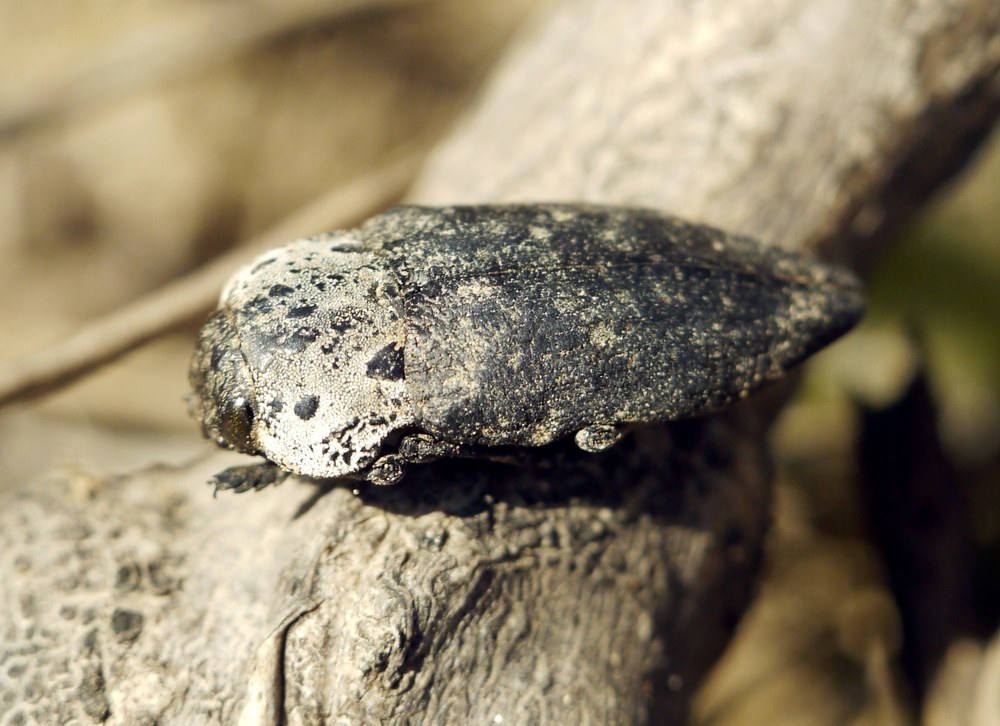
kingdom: Animalia
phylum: Arthropoda
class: Insecta
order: Coleoptera
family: Buprestidae
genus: Capnodis
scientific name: Capnodis tenebrionis
